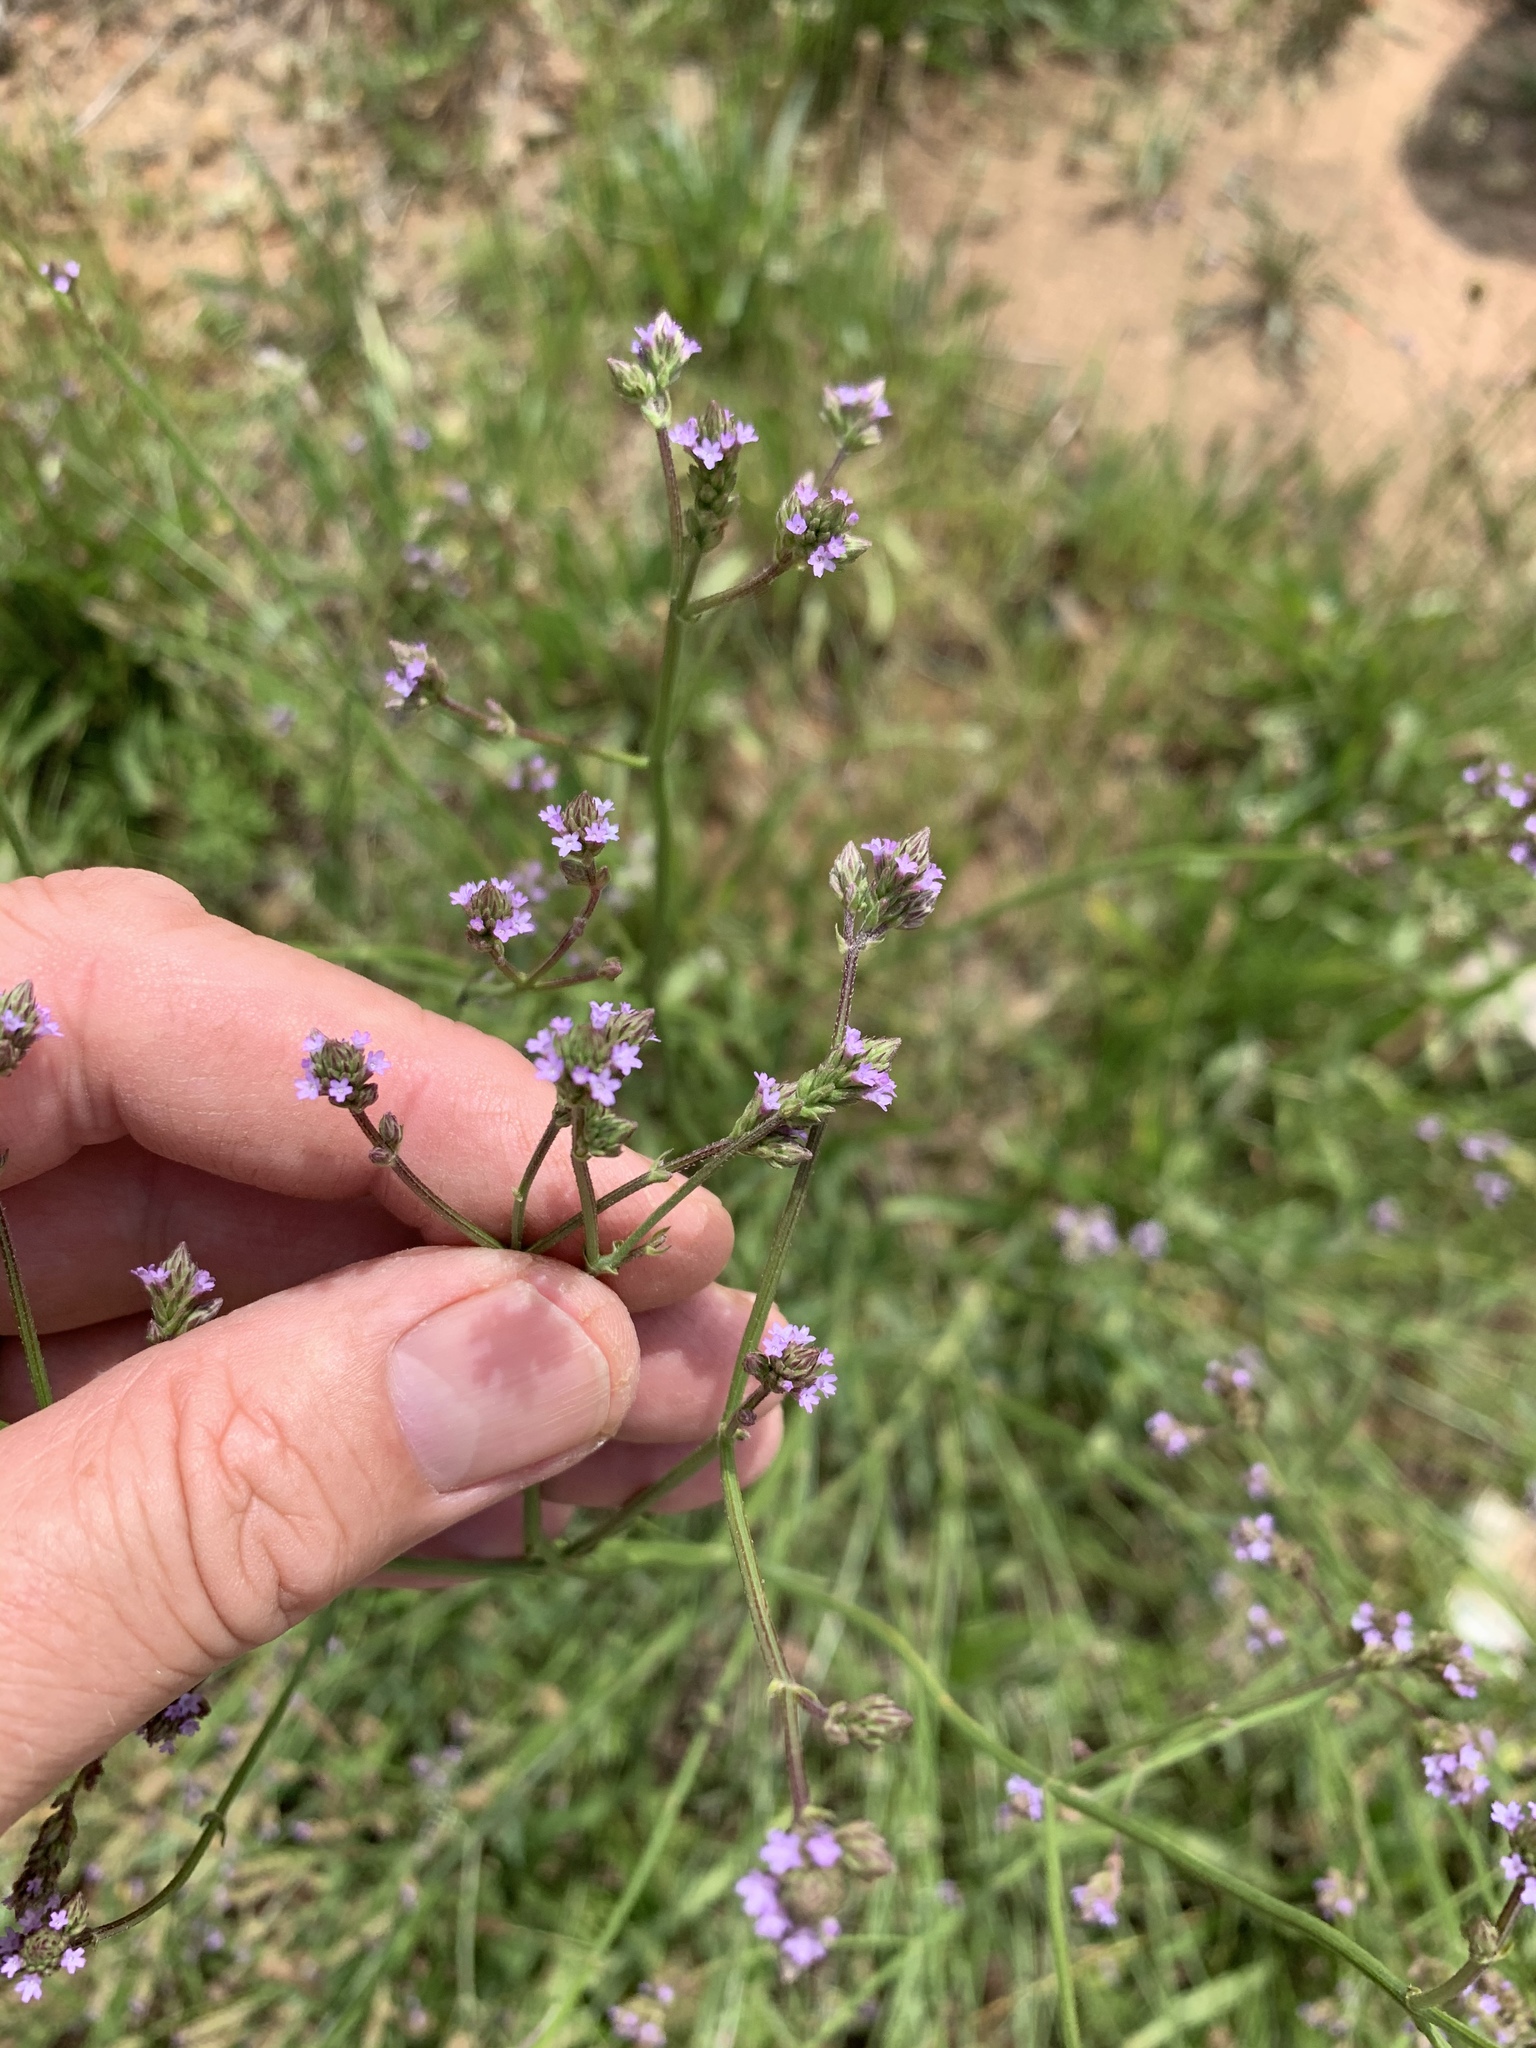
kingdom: Plantae
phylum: Tracheophyta
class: Magnoliopsida
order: Lamiales
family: Verbenaceae
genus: Verbena
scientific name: Verbena litoralis
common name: Seashore vervain
